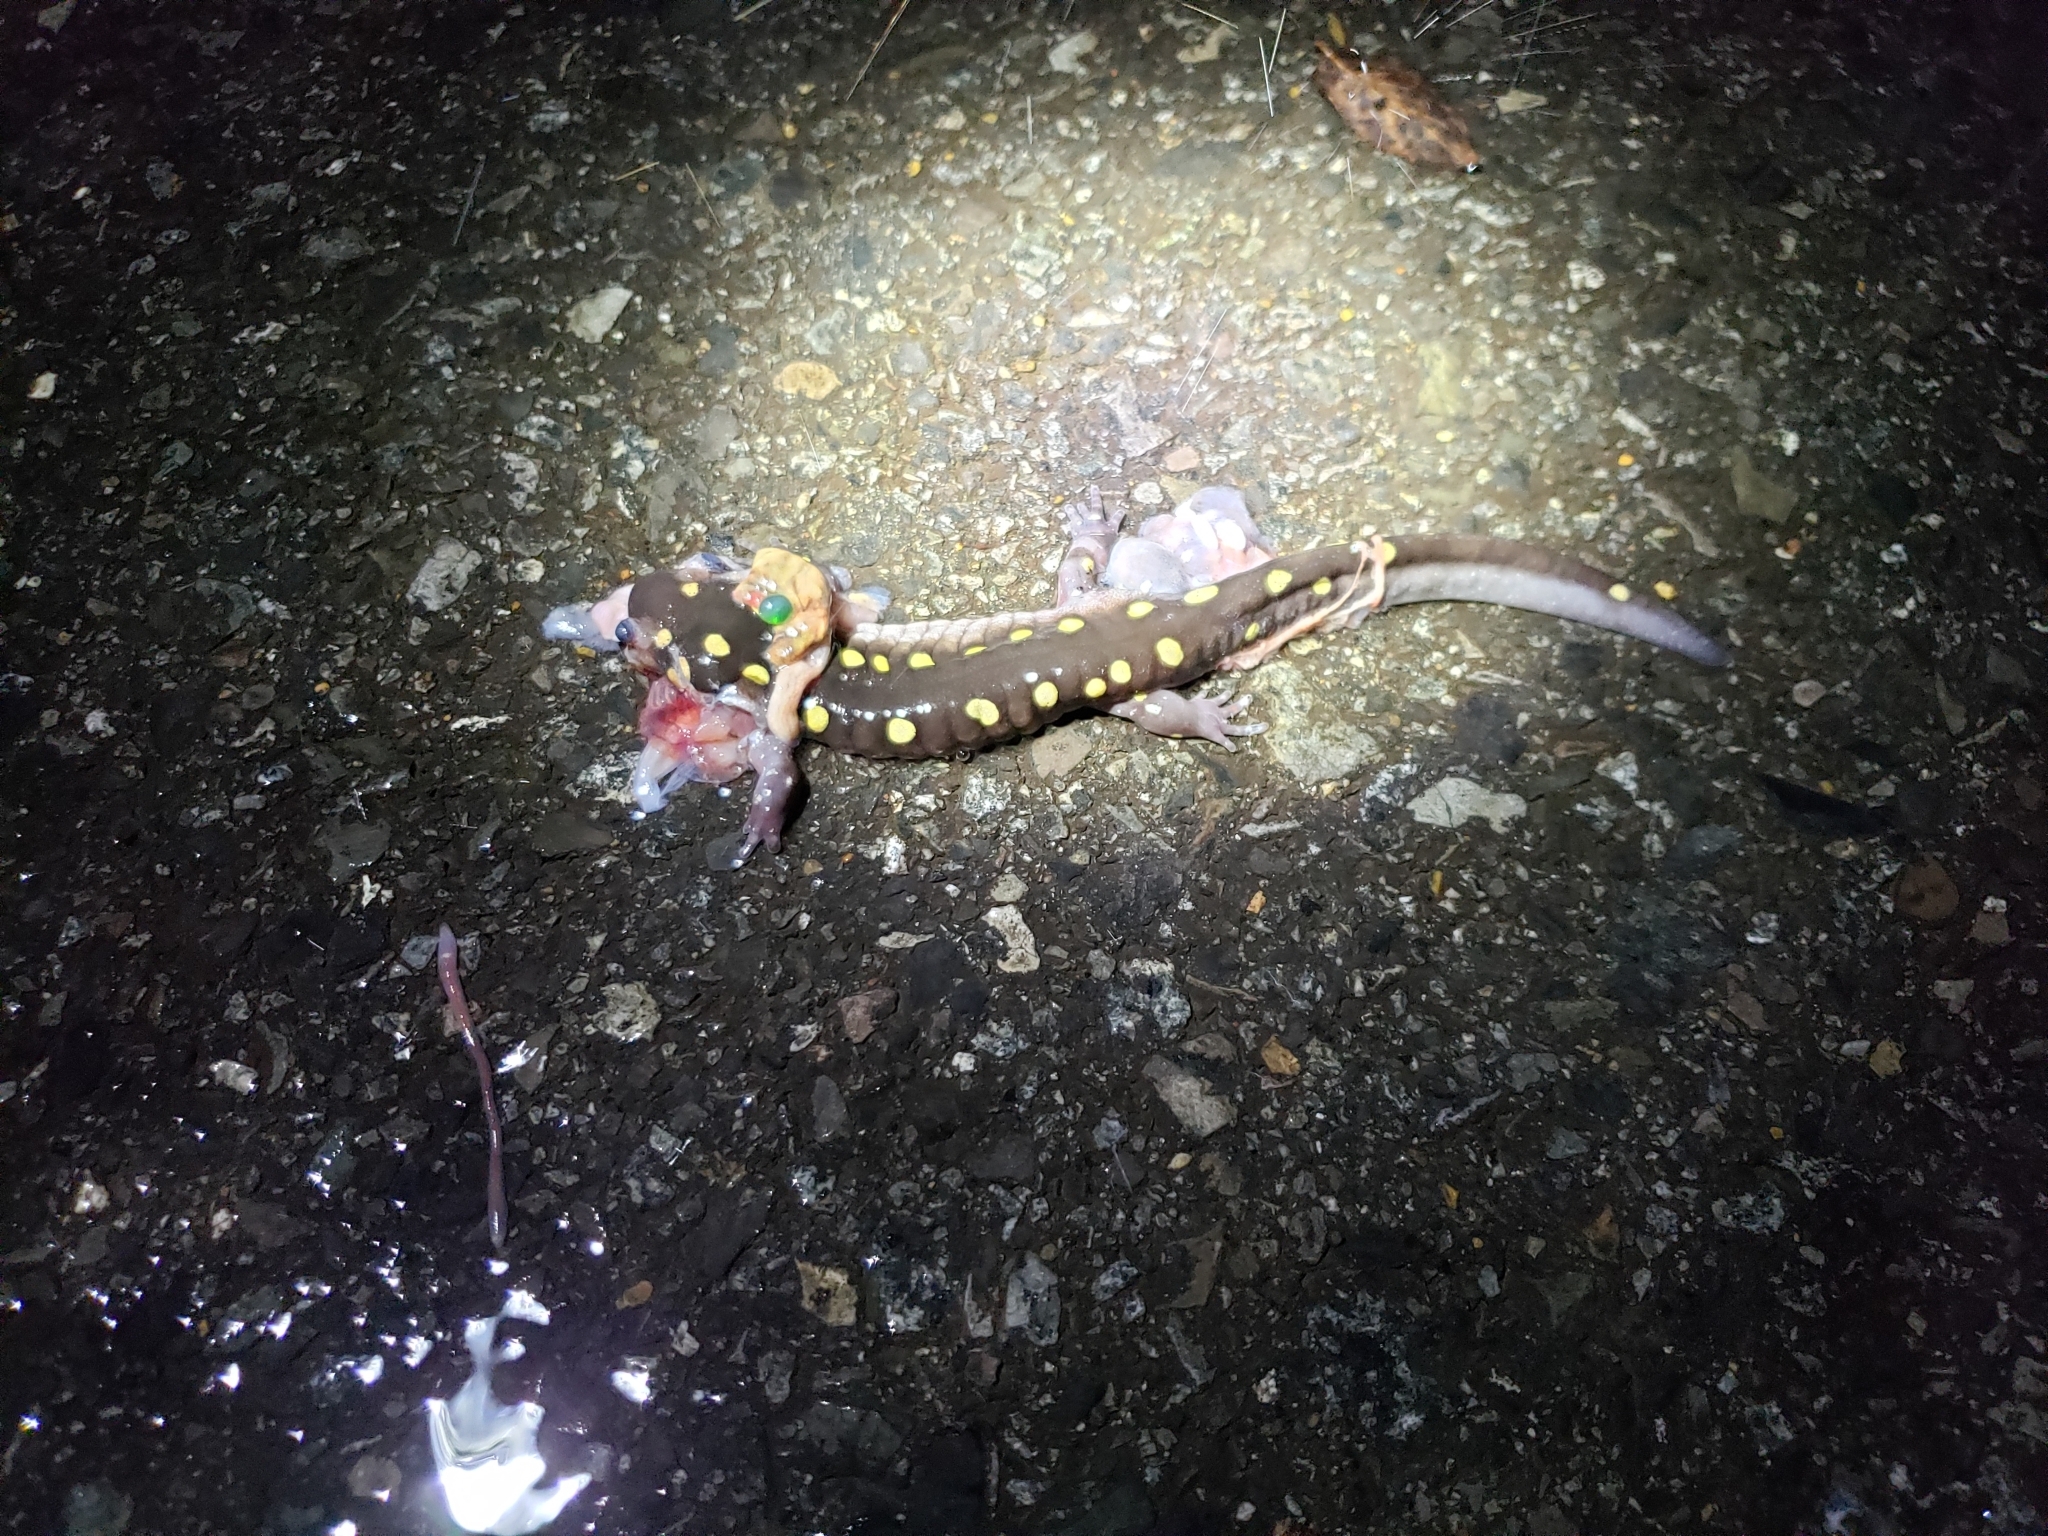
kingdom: Animalia
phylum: Chordata
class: Amphibia
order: Caudata
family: Ambystomatidae
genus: Ambystoma
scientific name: Ambystoma maculatum
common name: Spotted salamander
